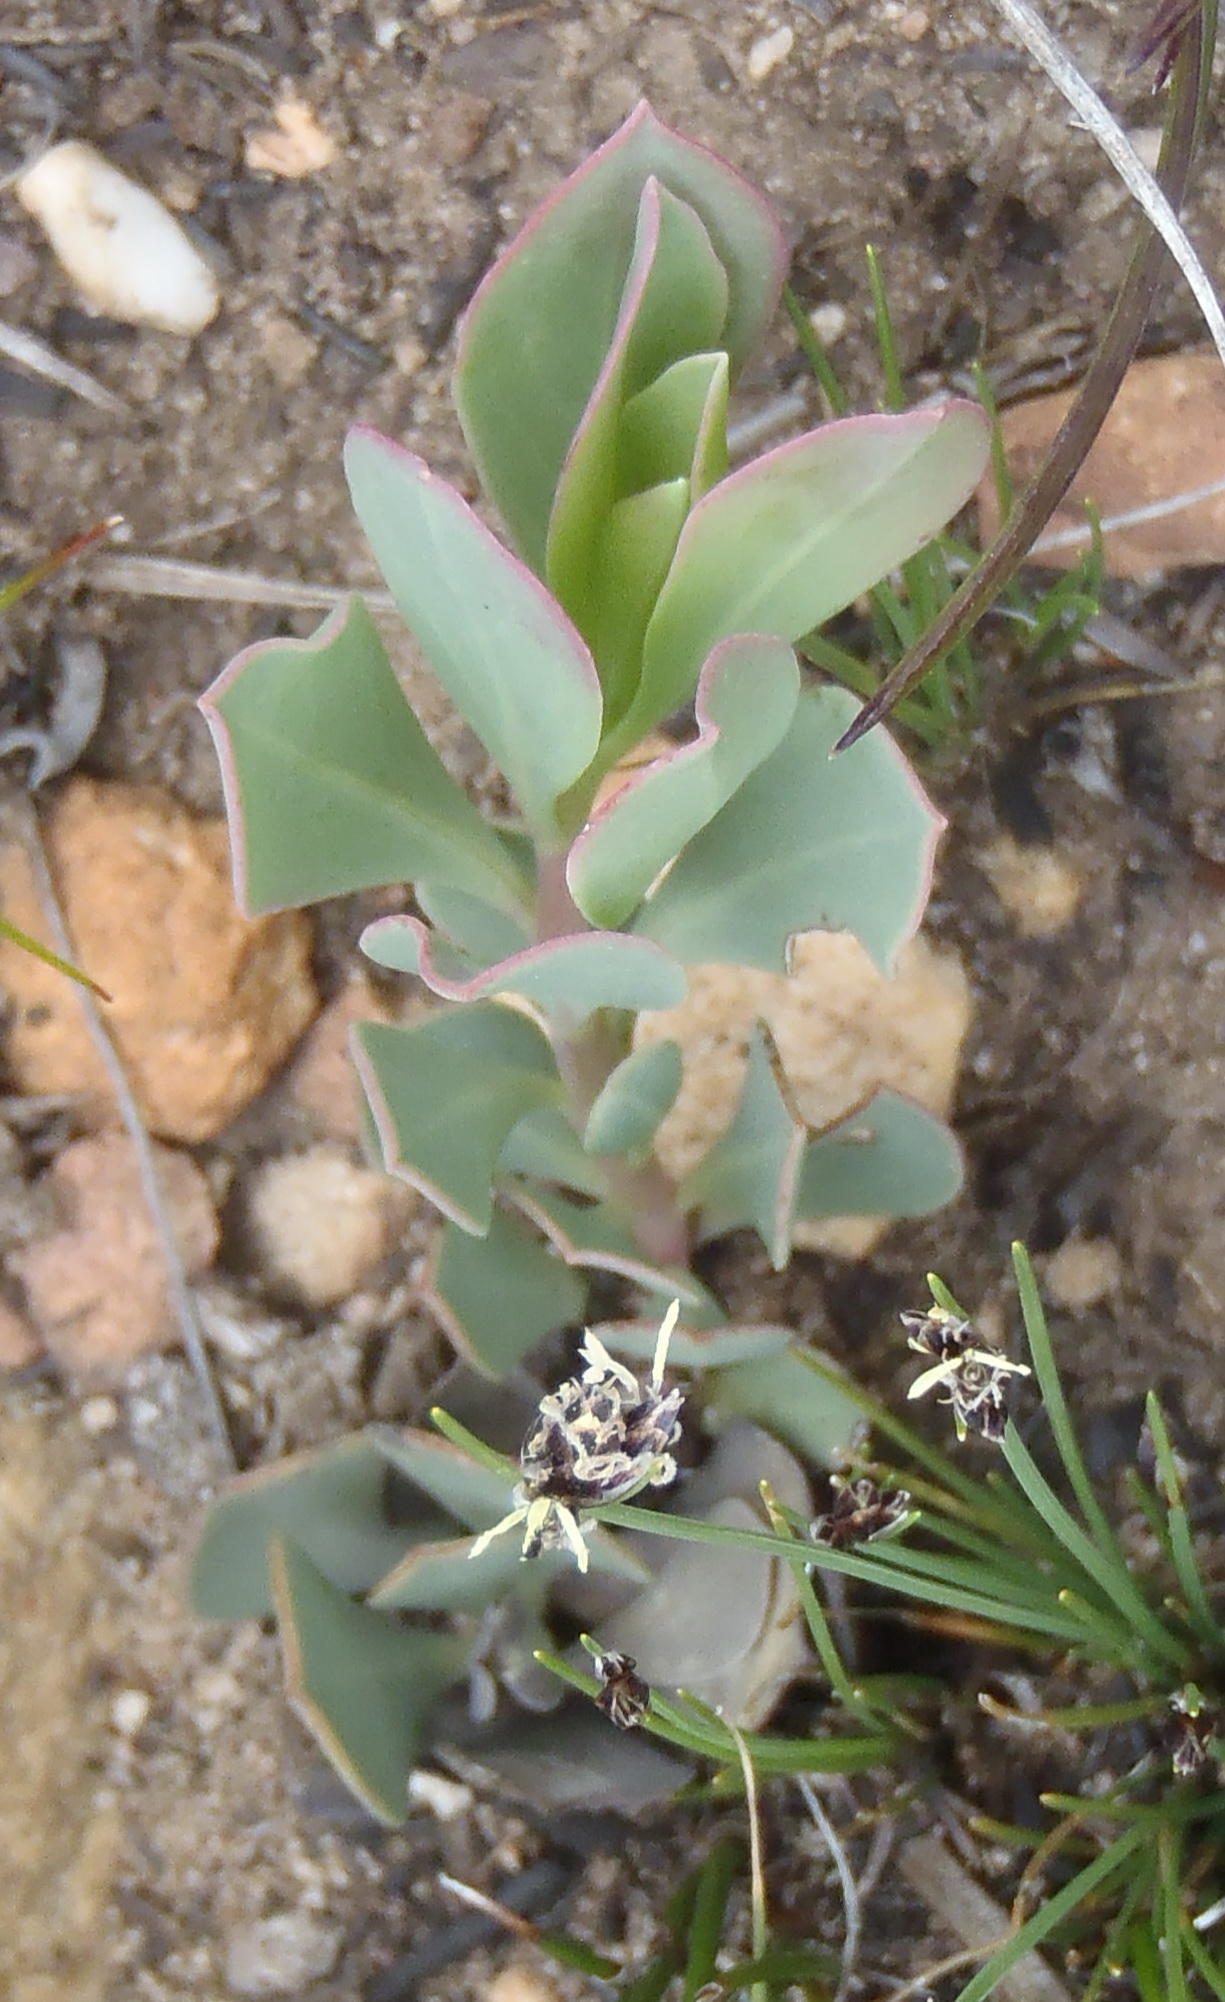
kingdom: Plantae
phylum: Tracheophyta
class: Magnoliopsida
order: Fabales
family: Fabaceae
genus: Rafnia
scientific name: Rafnia rostrata
